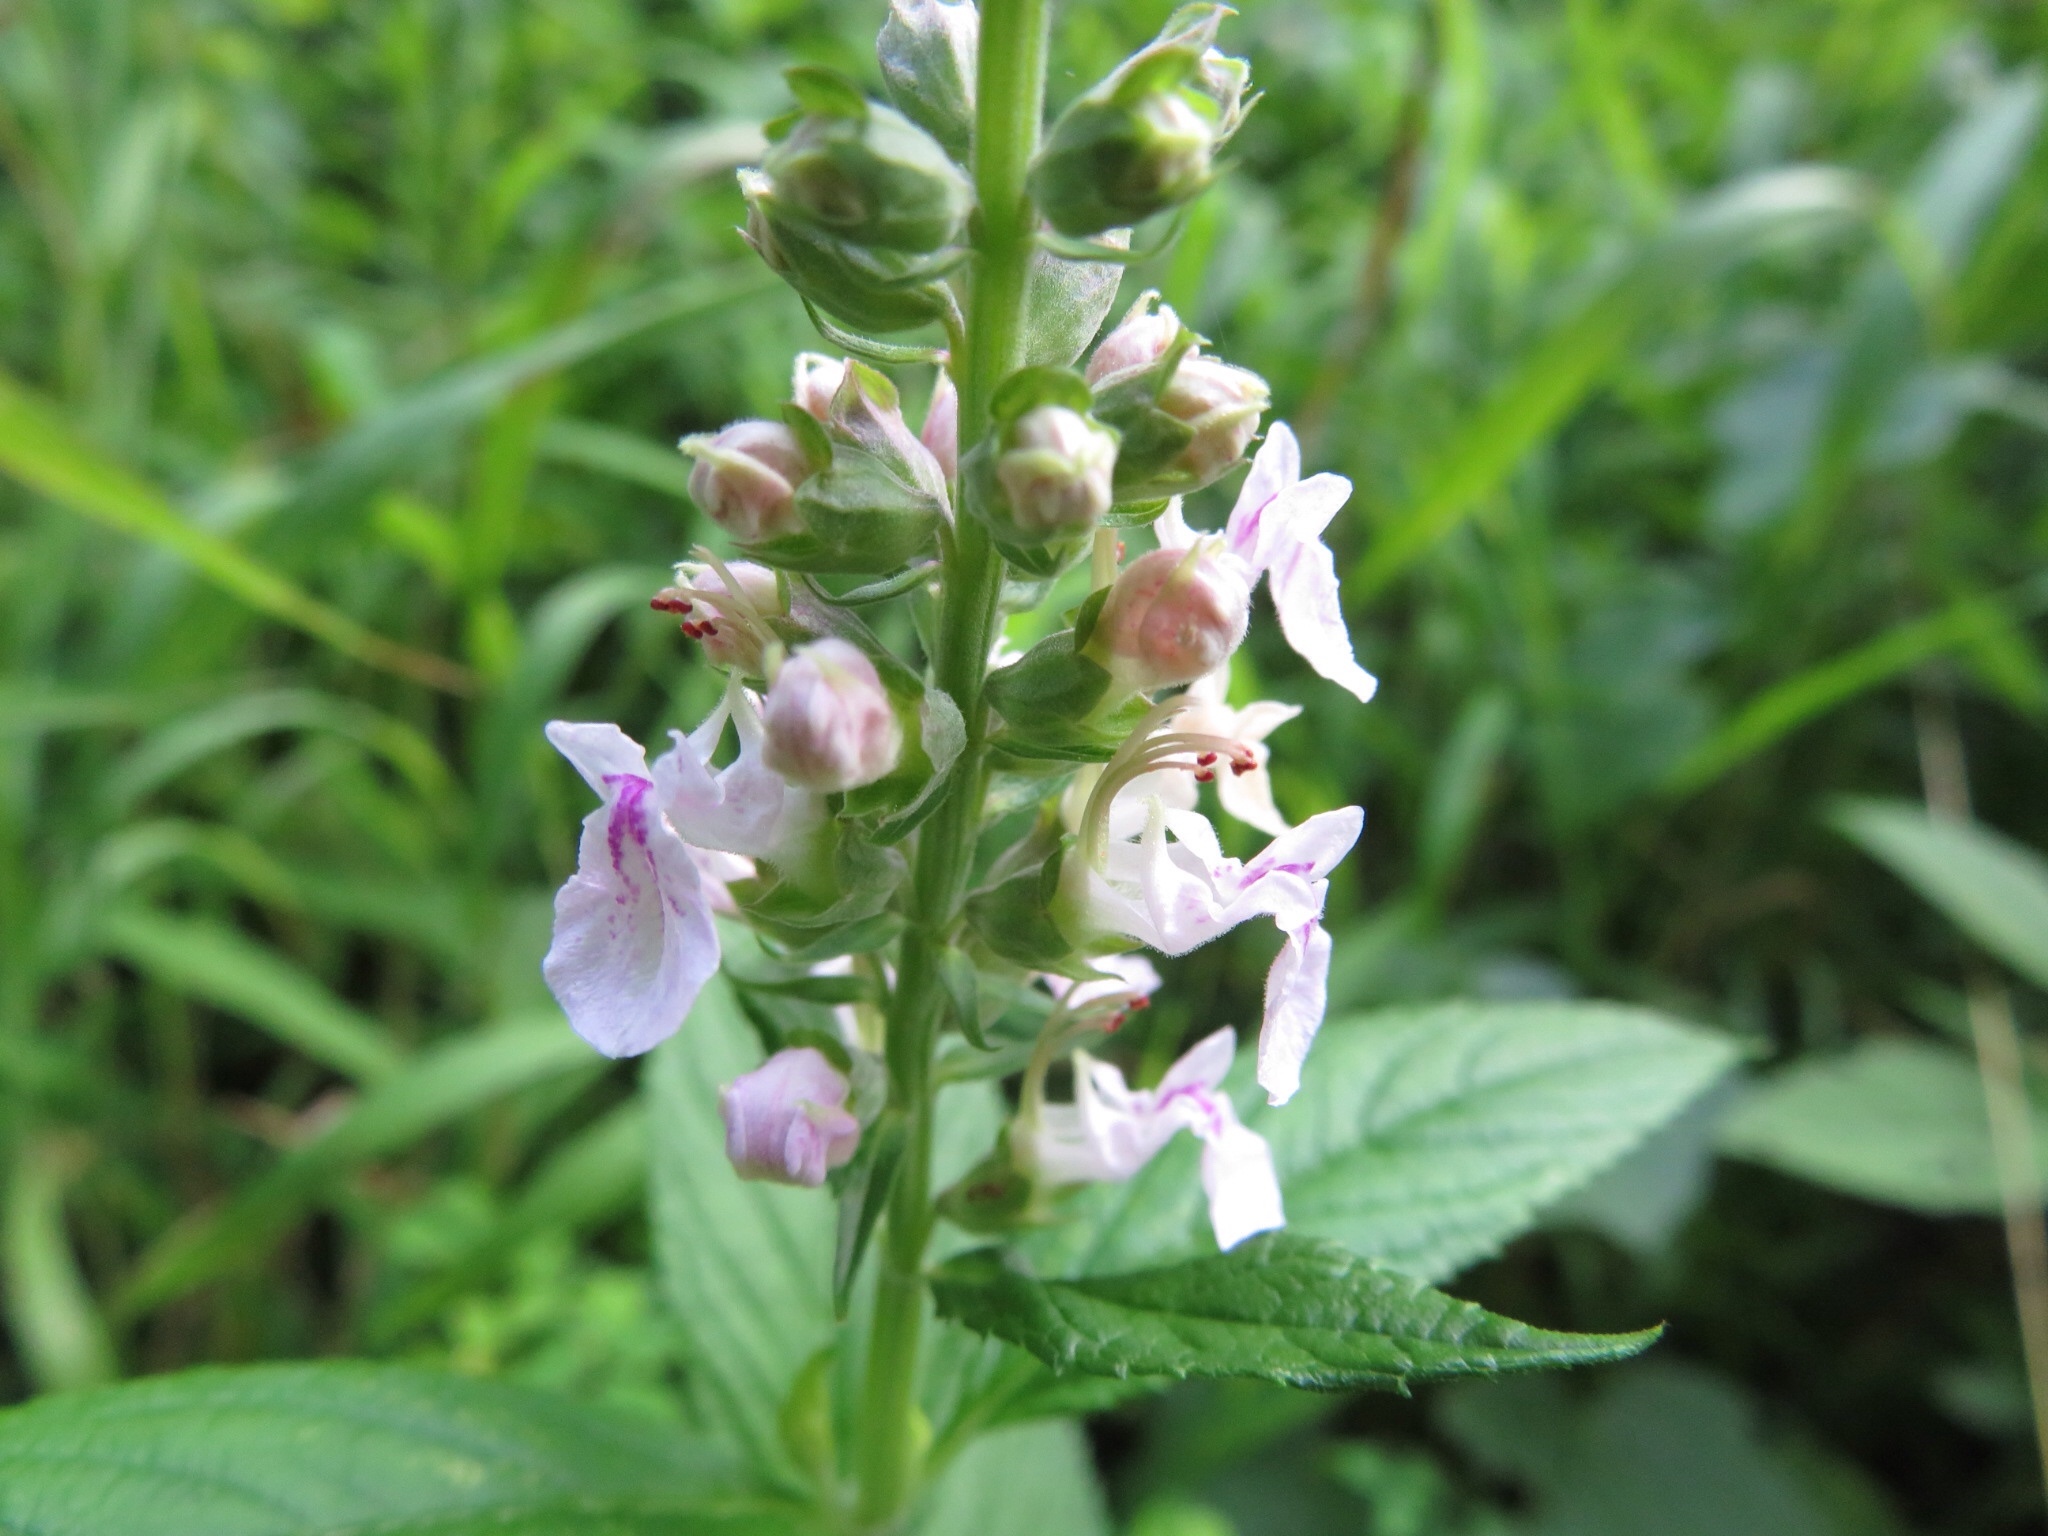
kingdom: Plantae
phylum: Tracheophyta
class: Magnoliopsida
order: Lamiales
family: Lamiaceae
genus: Teucrium
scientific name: Teucrium canadense
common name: American germander
